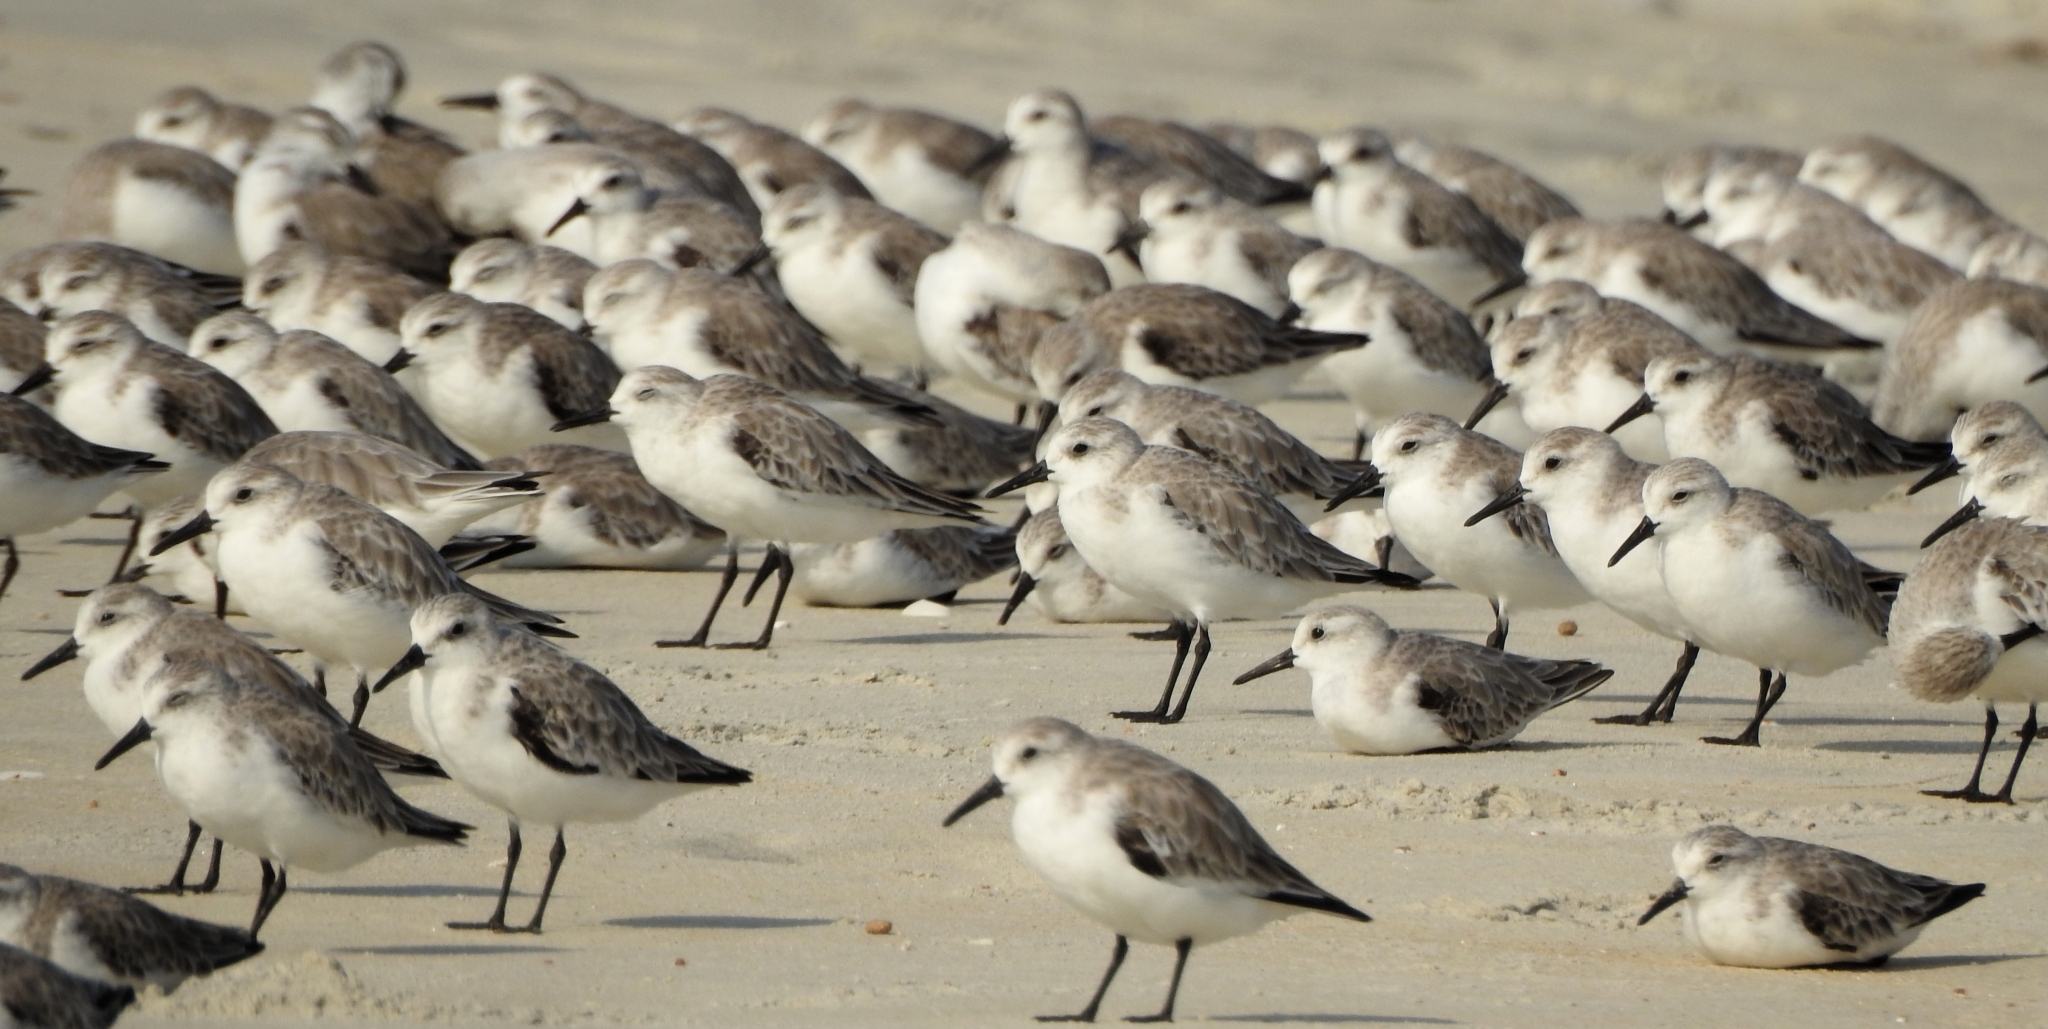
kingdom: Animalia
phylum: Chordata
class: Aves
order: Charadriiformes
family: Scolopacidae
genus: Calidris
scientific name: Calidris alba
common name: Sanderling
